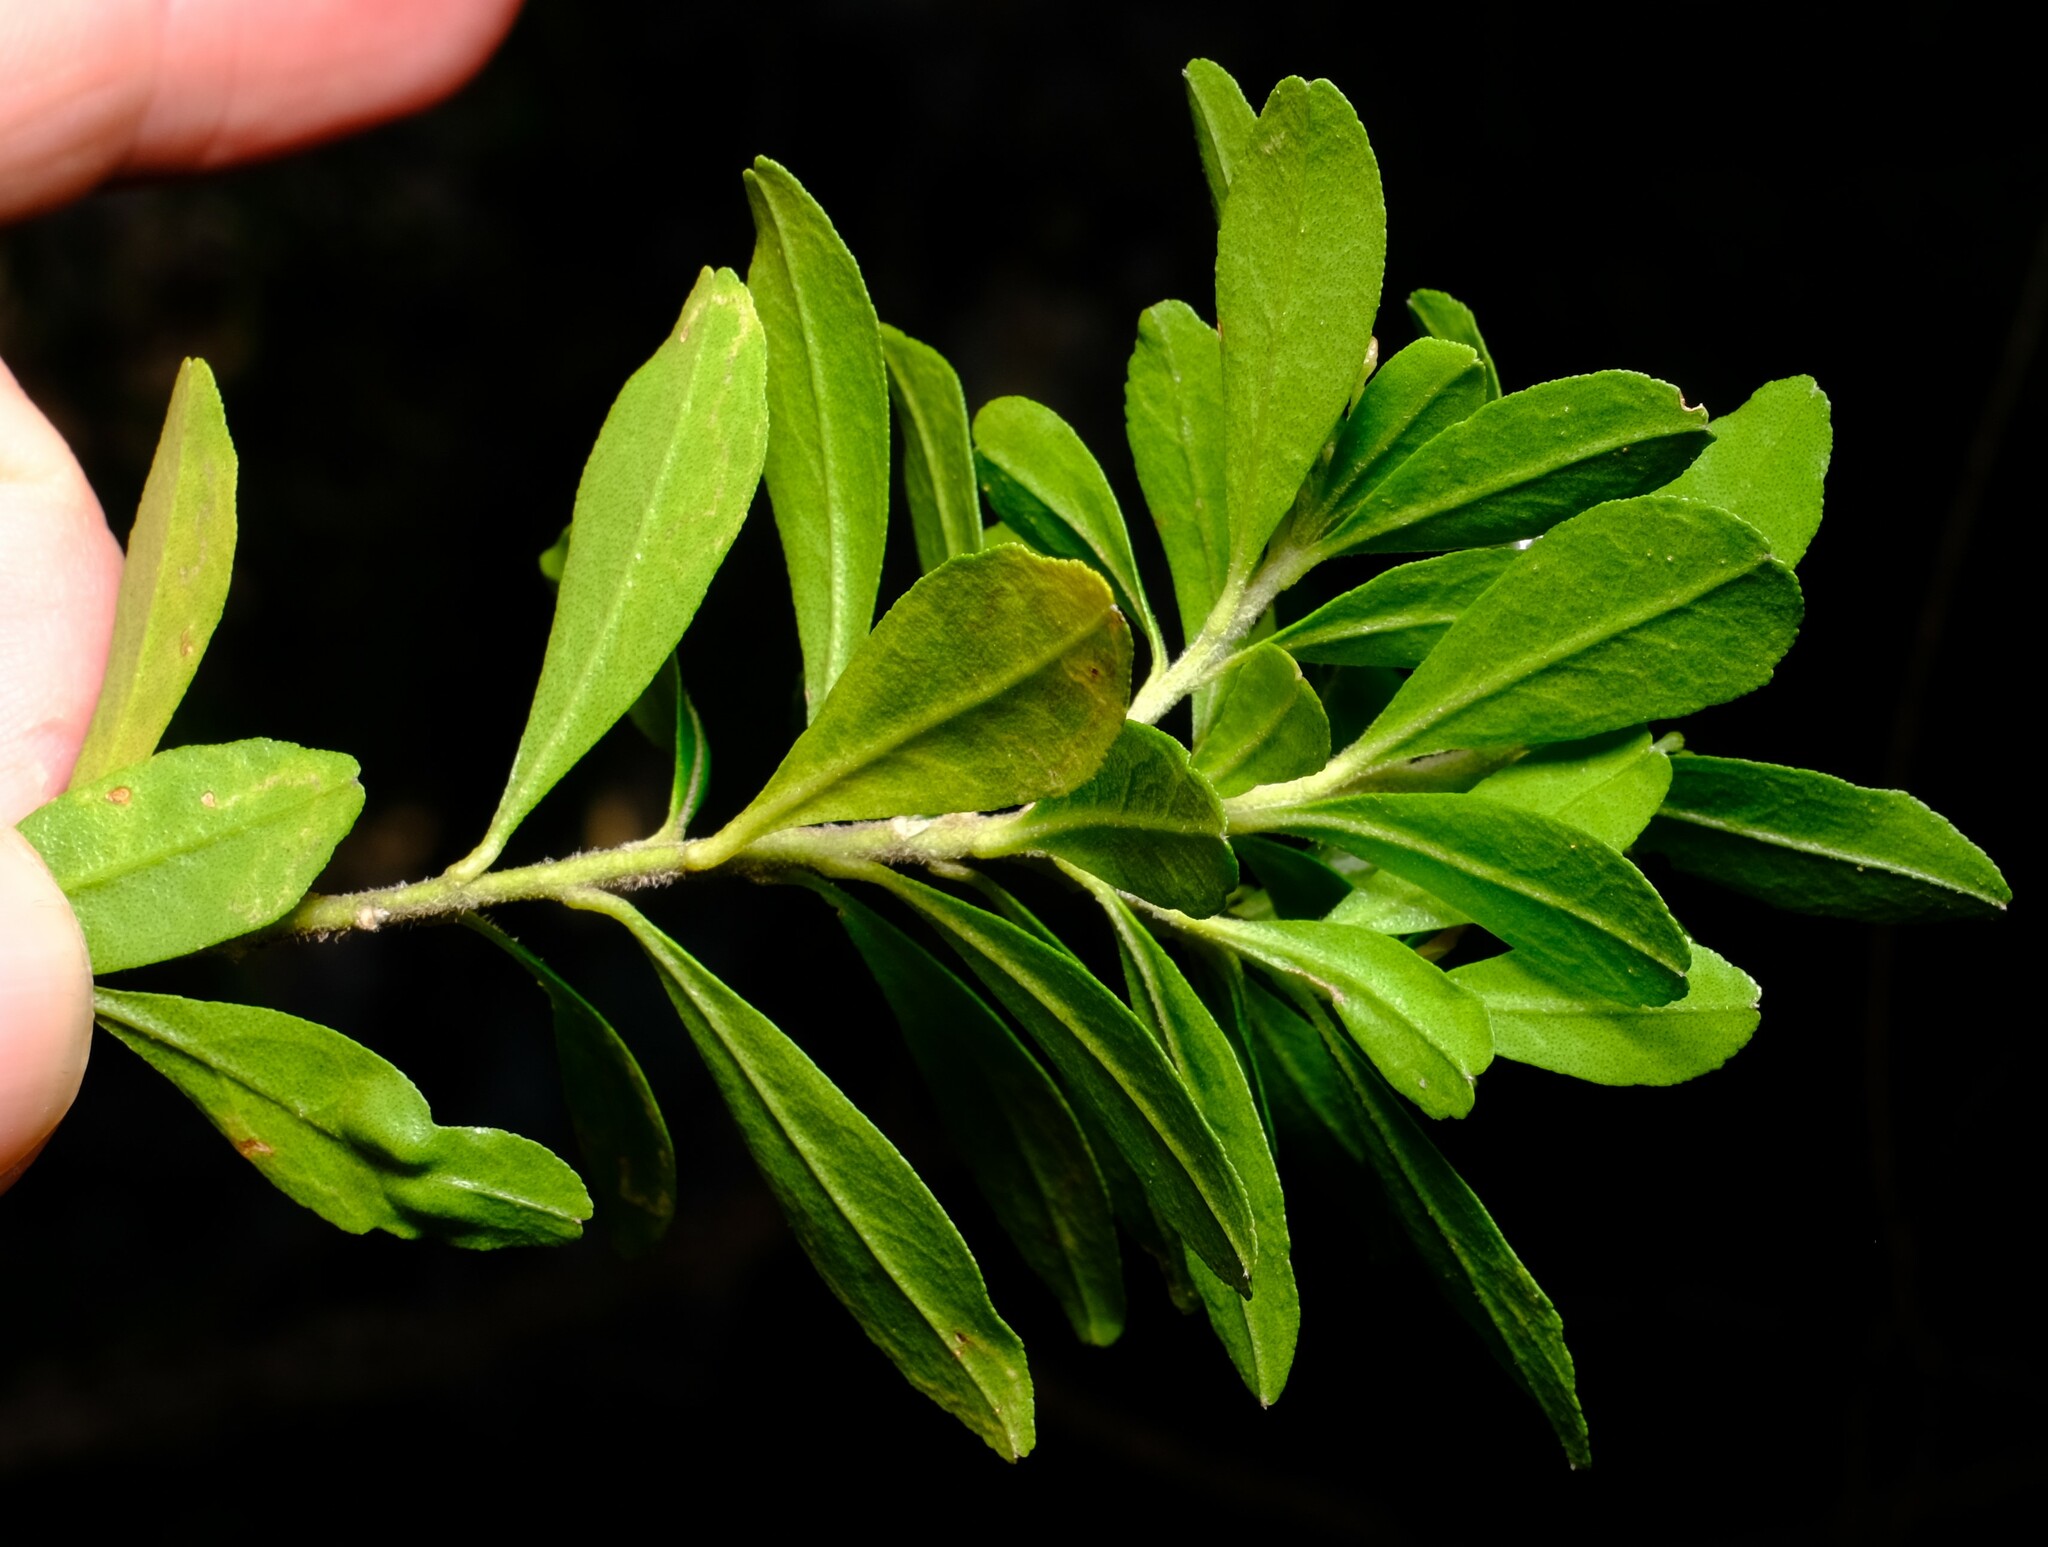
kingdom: Plantae
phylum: Tracheophyta
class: Magnoliopsida
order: Sapindales
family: Rutaceae
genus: Leionema
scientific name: Leionema beckleri
